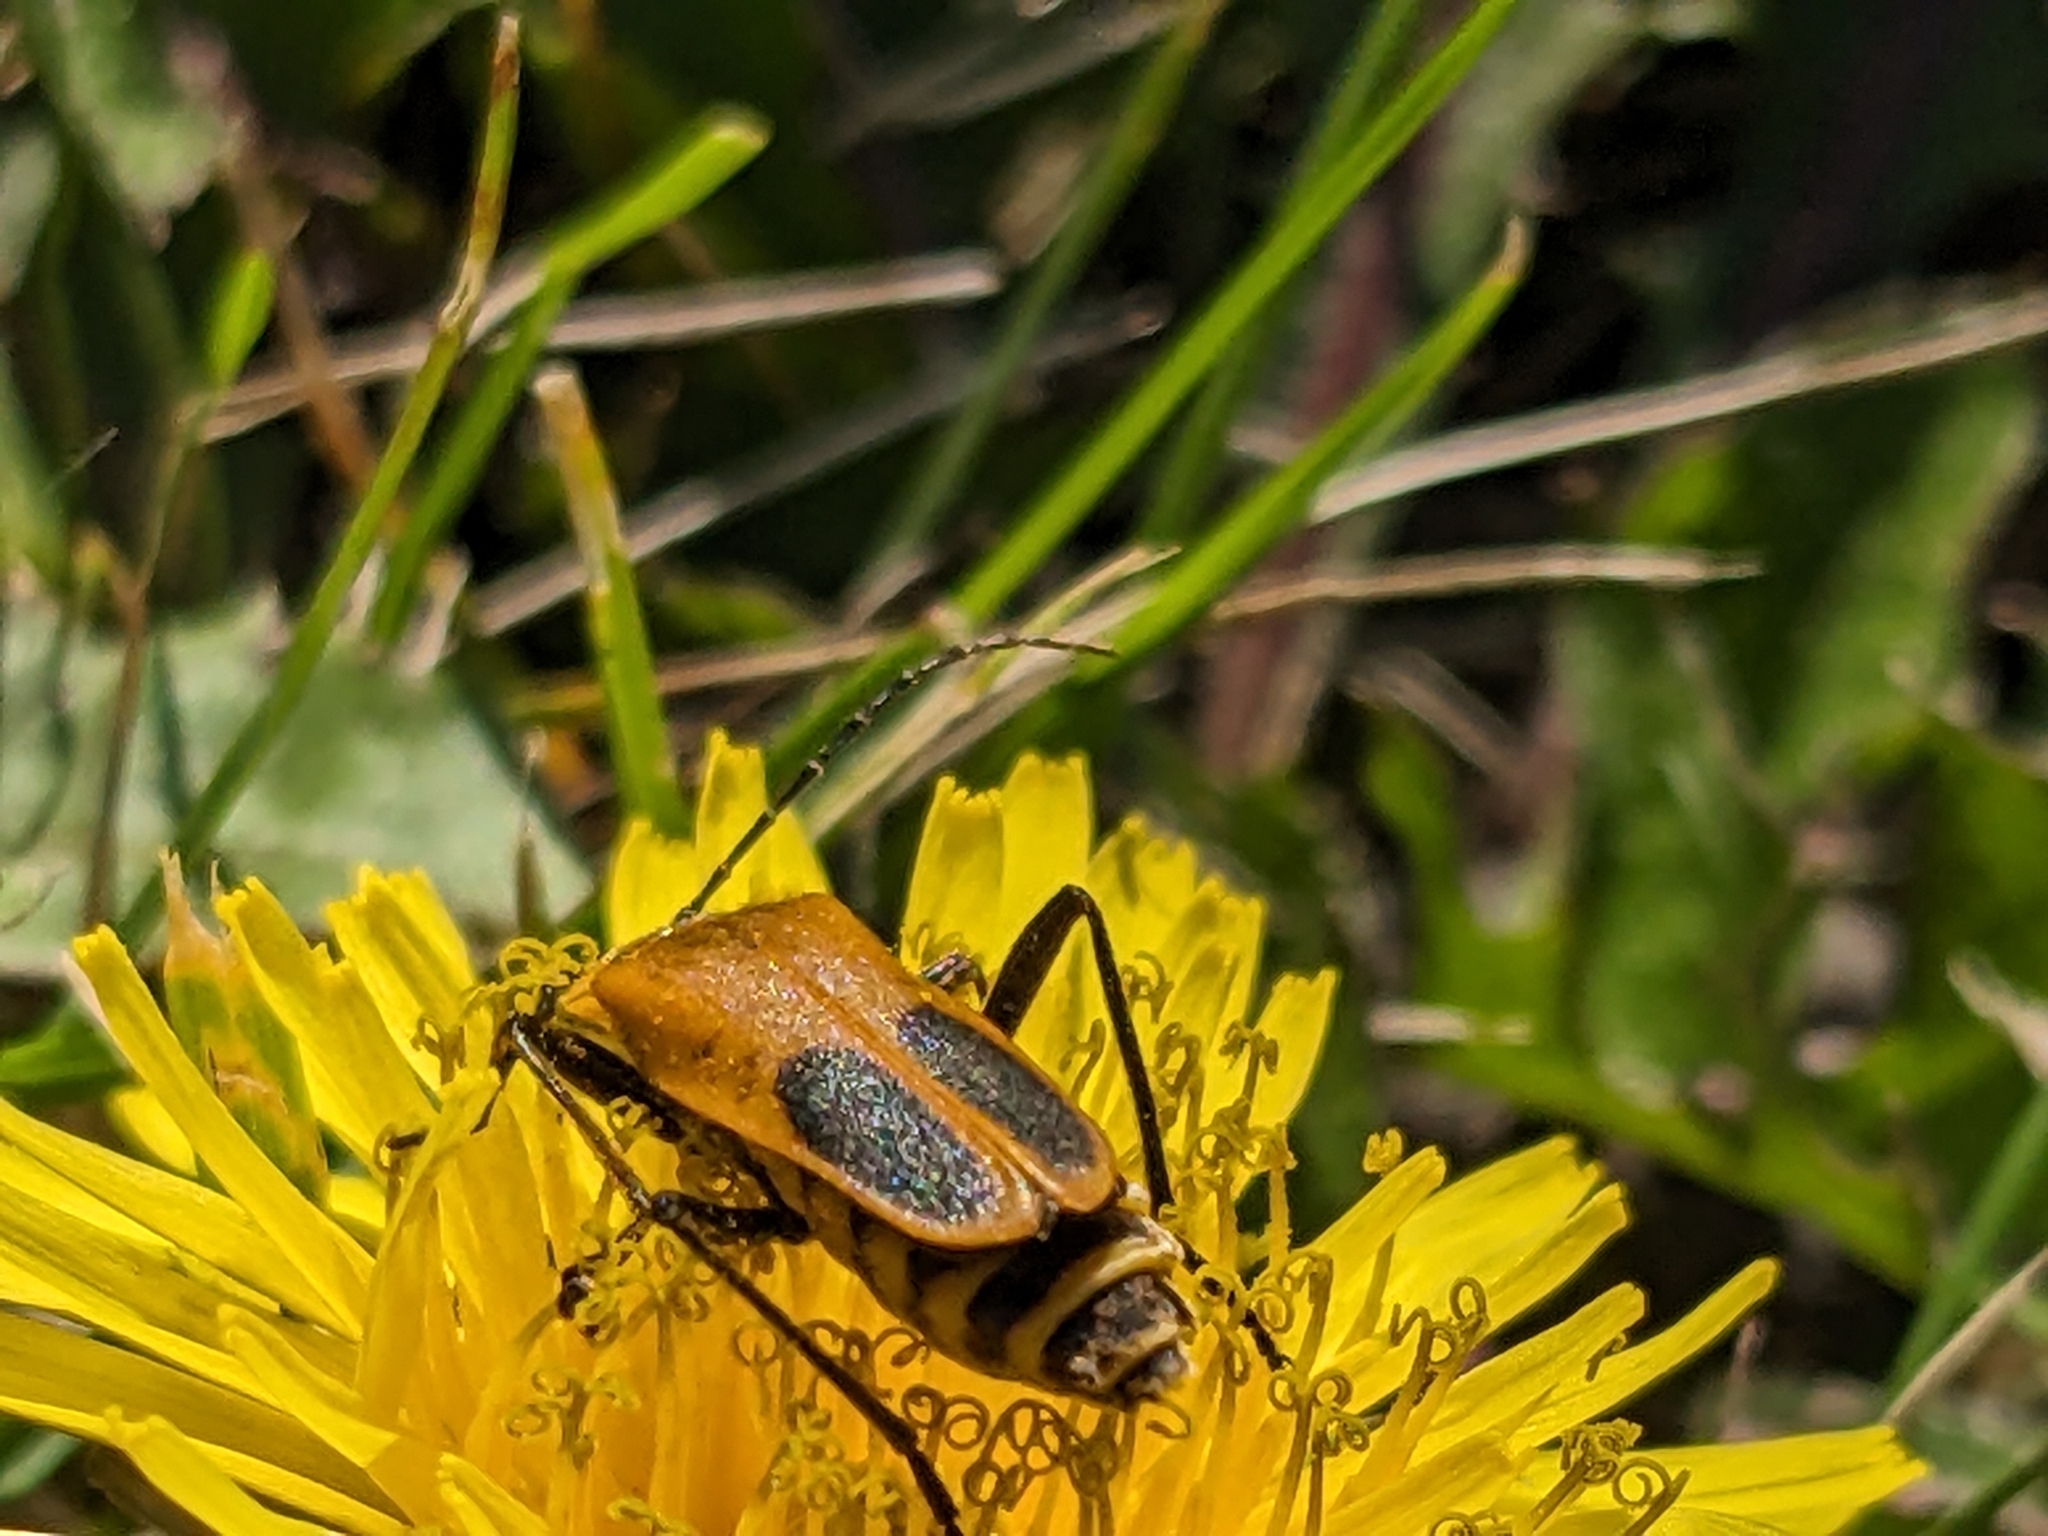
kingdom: Animalia
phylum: Arthropoda
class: Insecta
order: Coleoptera
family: Cantharidae
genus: Chauliognathus
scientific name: Chauliognathus pensylvanicus
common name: Goldenrod soldier beetle
